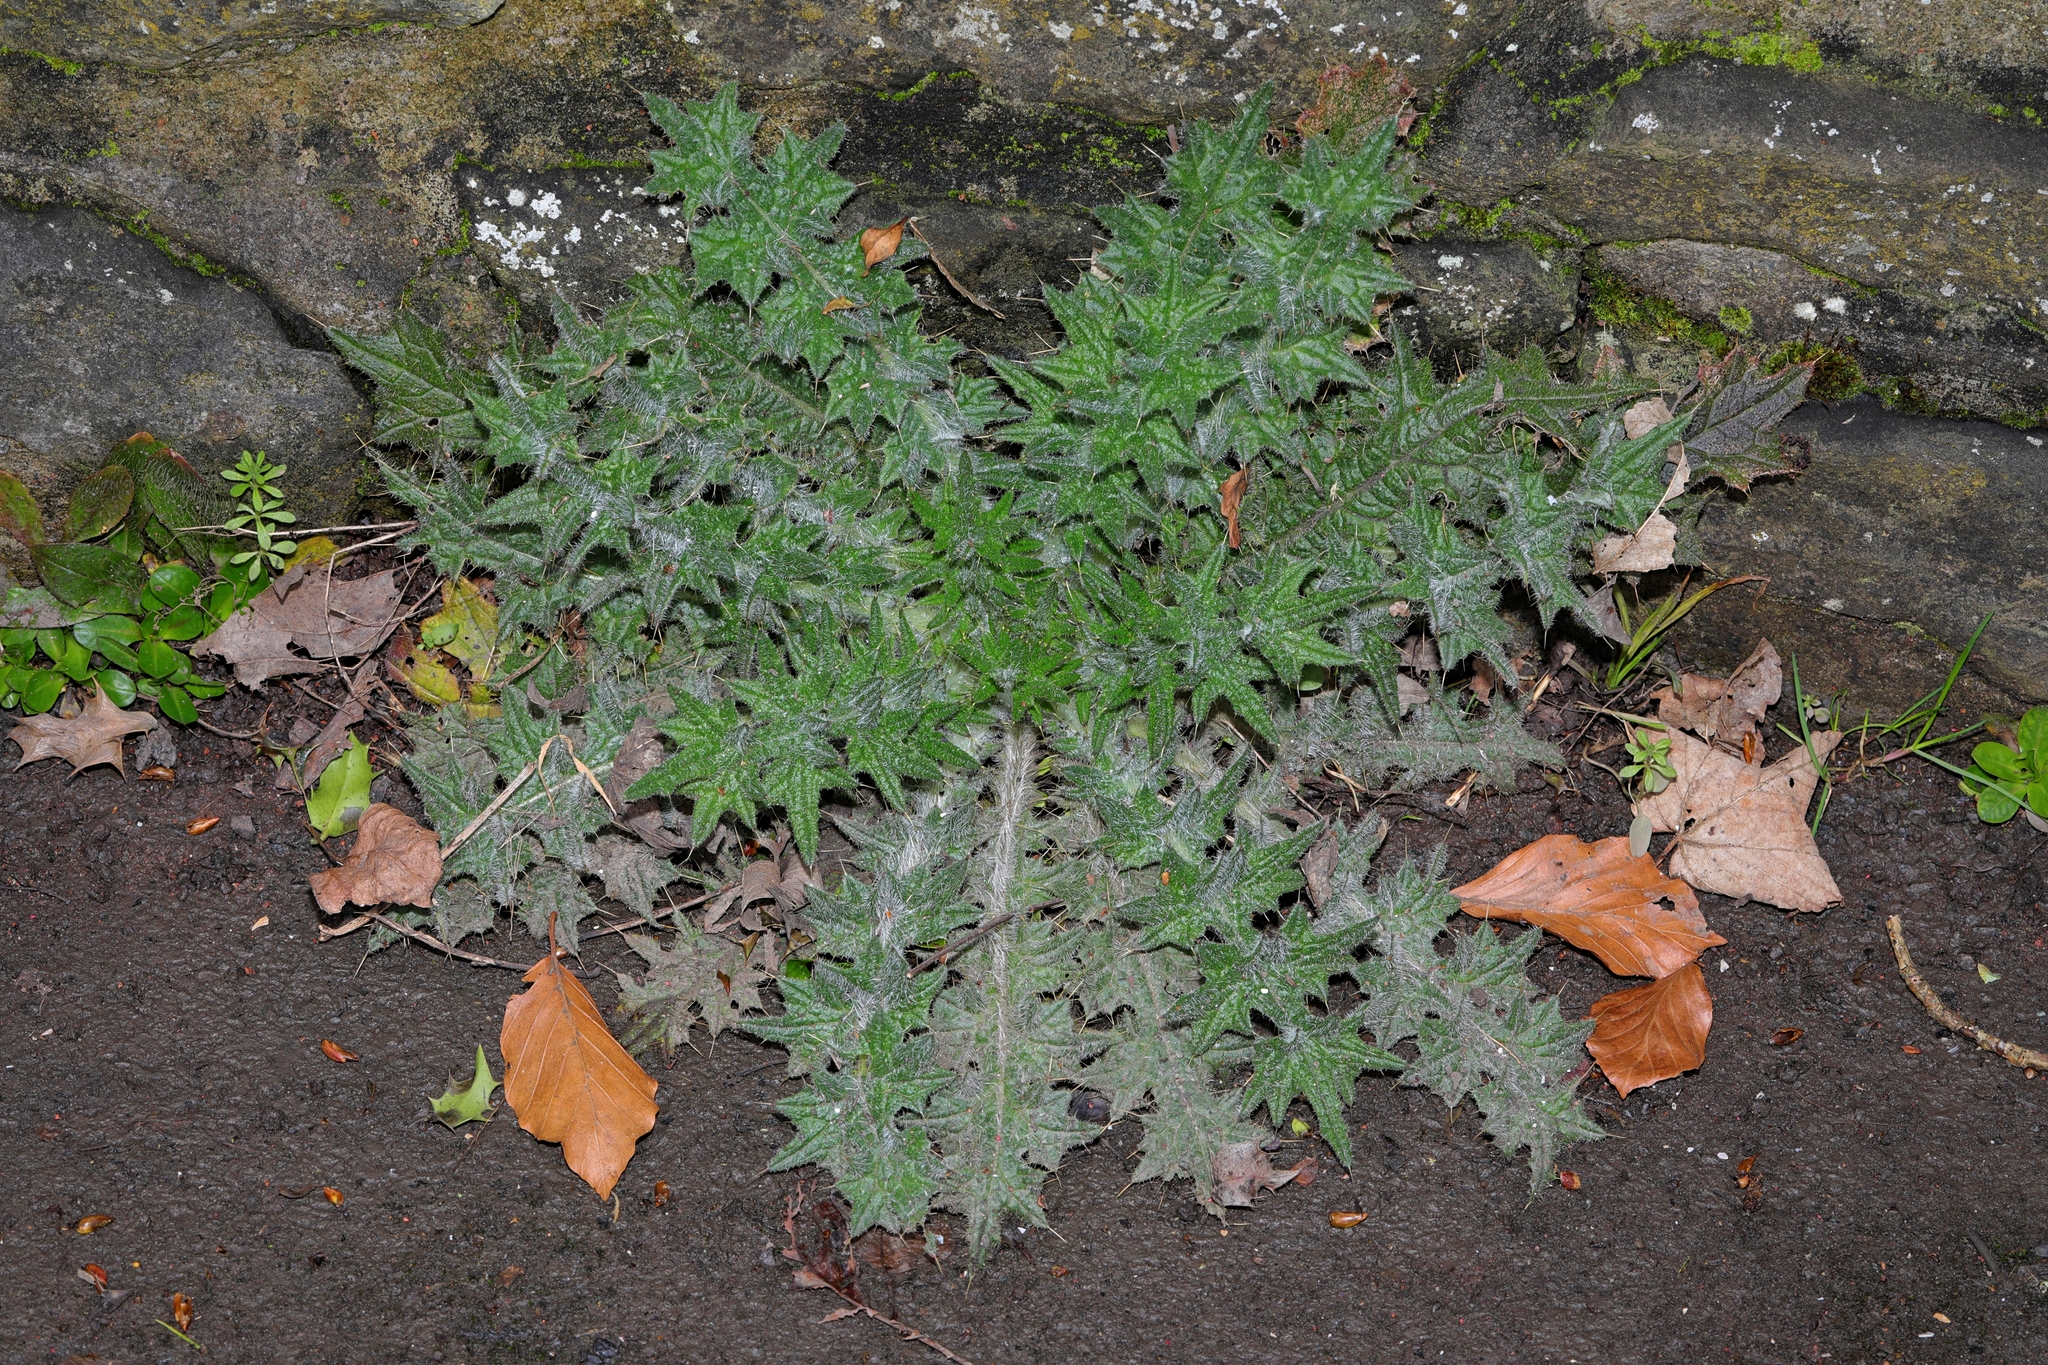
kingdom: Plantae
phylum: Tracheophyta
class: Magnoliopsida
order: Asterales
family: Asteraceae
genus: Cirsium
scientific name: Cirsium vulgare
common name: Bull thistle
